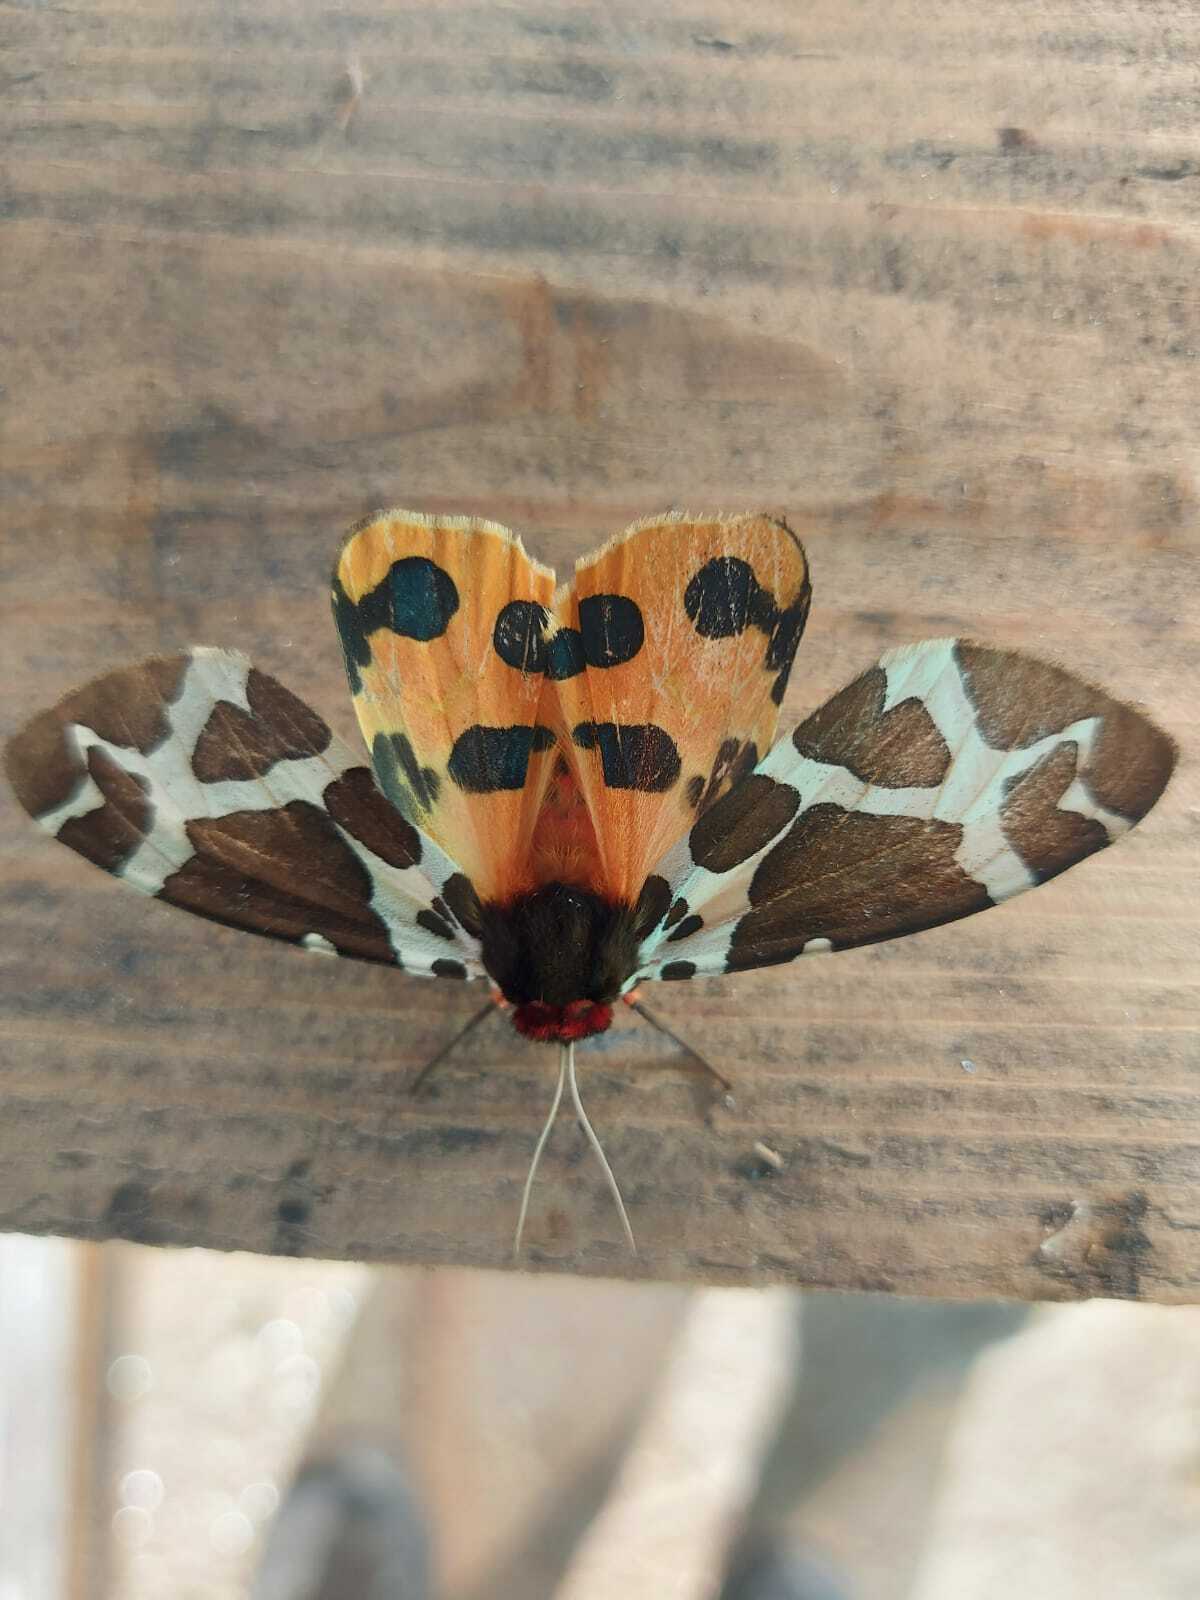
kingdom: Animalia
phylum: Arthropoda
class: Insecta
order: Lepidoptera
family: Erebidae
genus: Arctia
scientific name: Arctia caja
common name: Garden tiger
